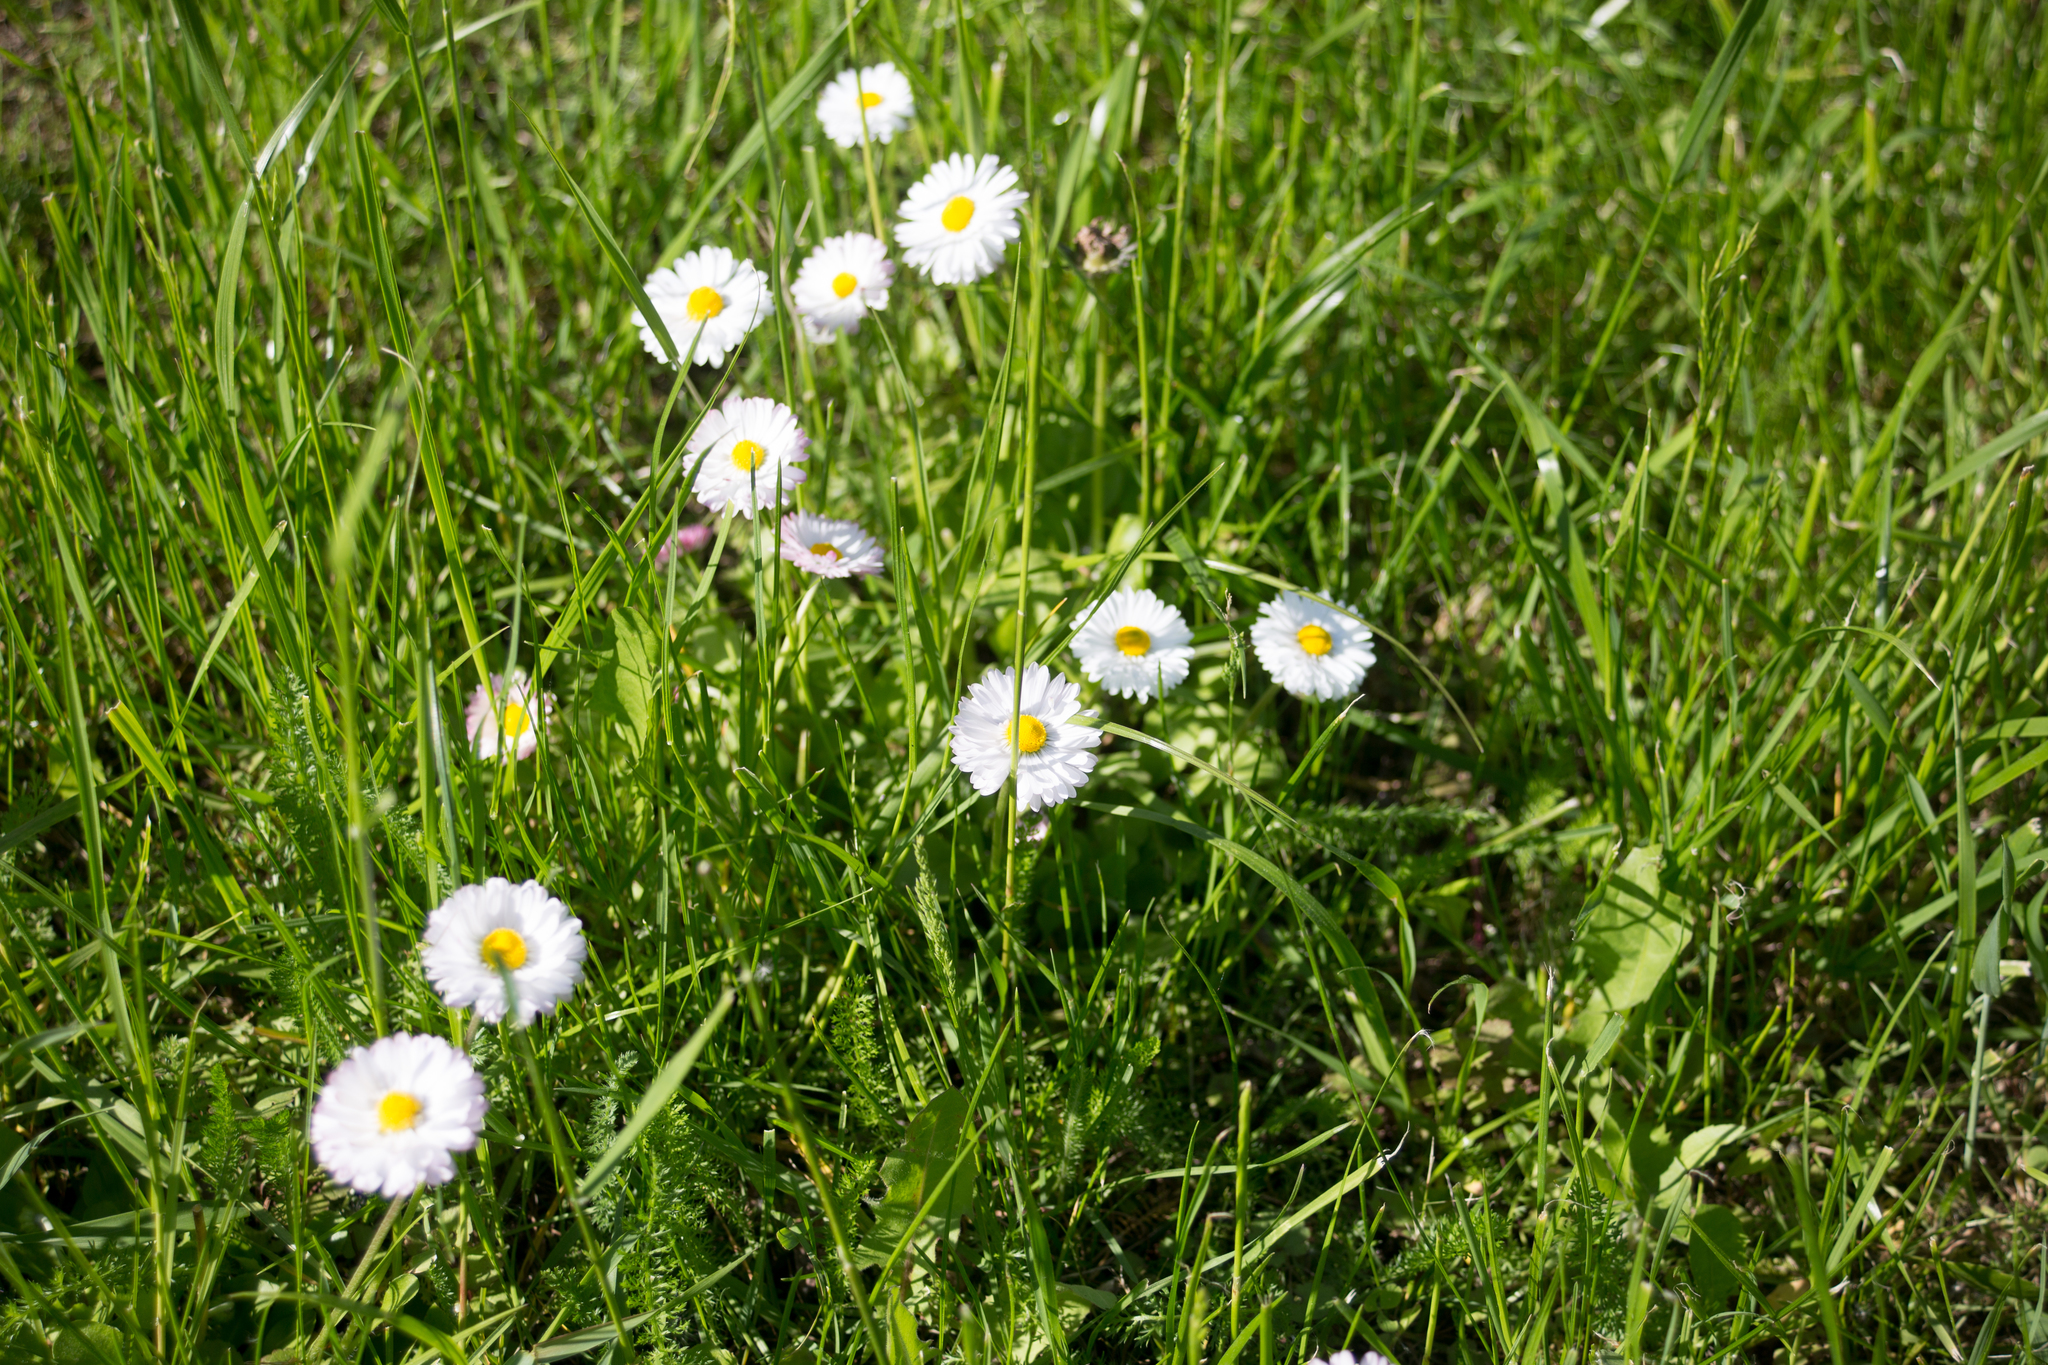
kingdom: Plantae
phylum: Tracheophyta
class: Magnoliopsida
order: Asterales
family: Asteraceae
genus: Bellis
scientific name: Bellis perennis
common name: Lawndaisy
